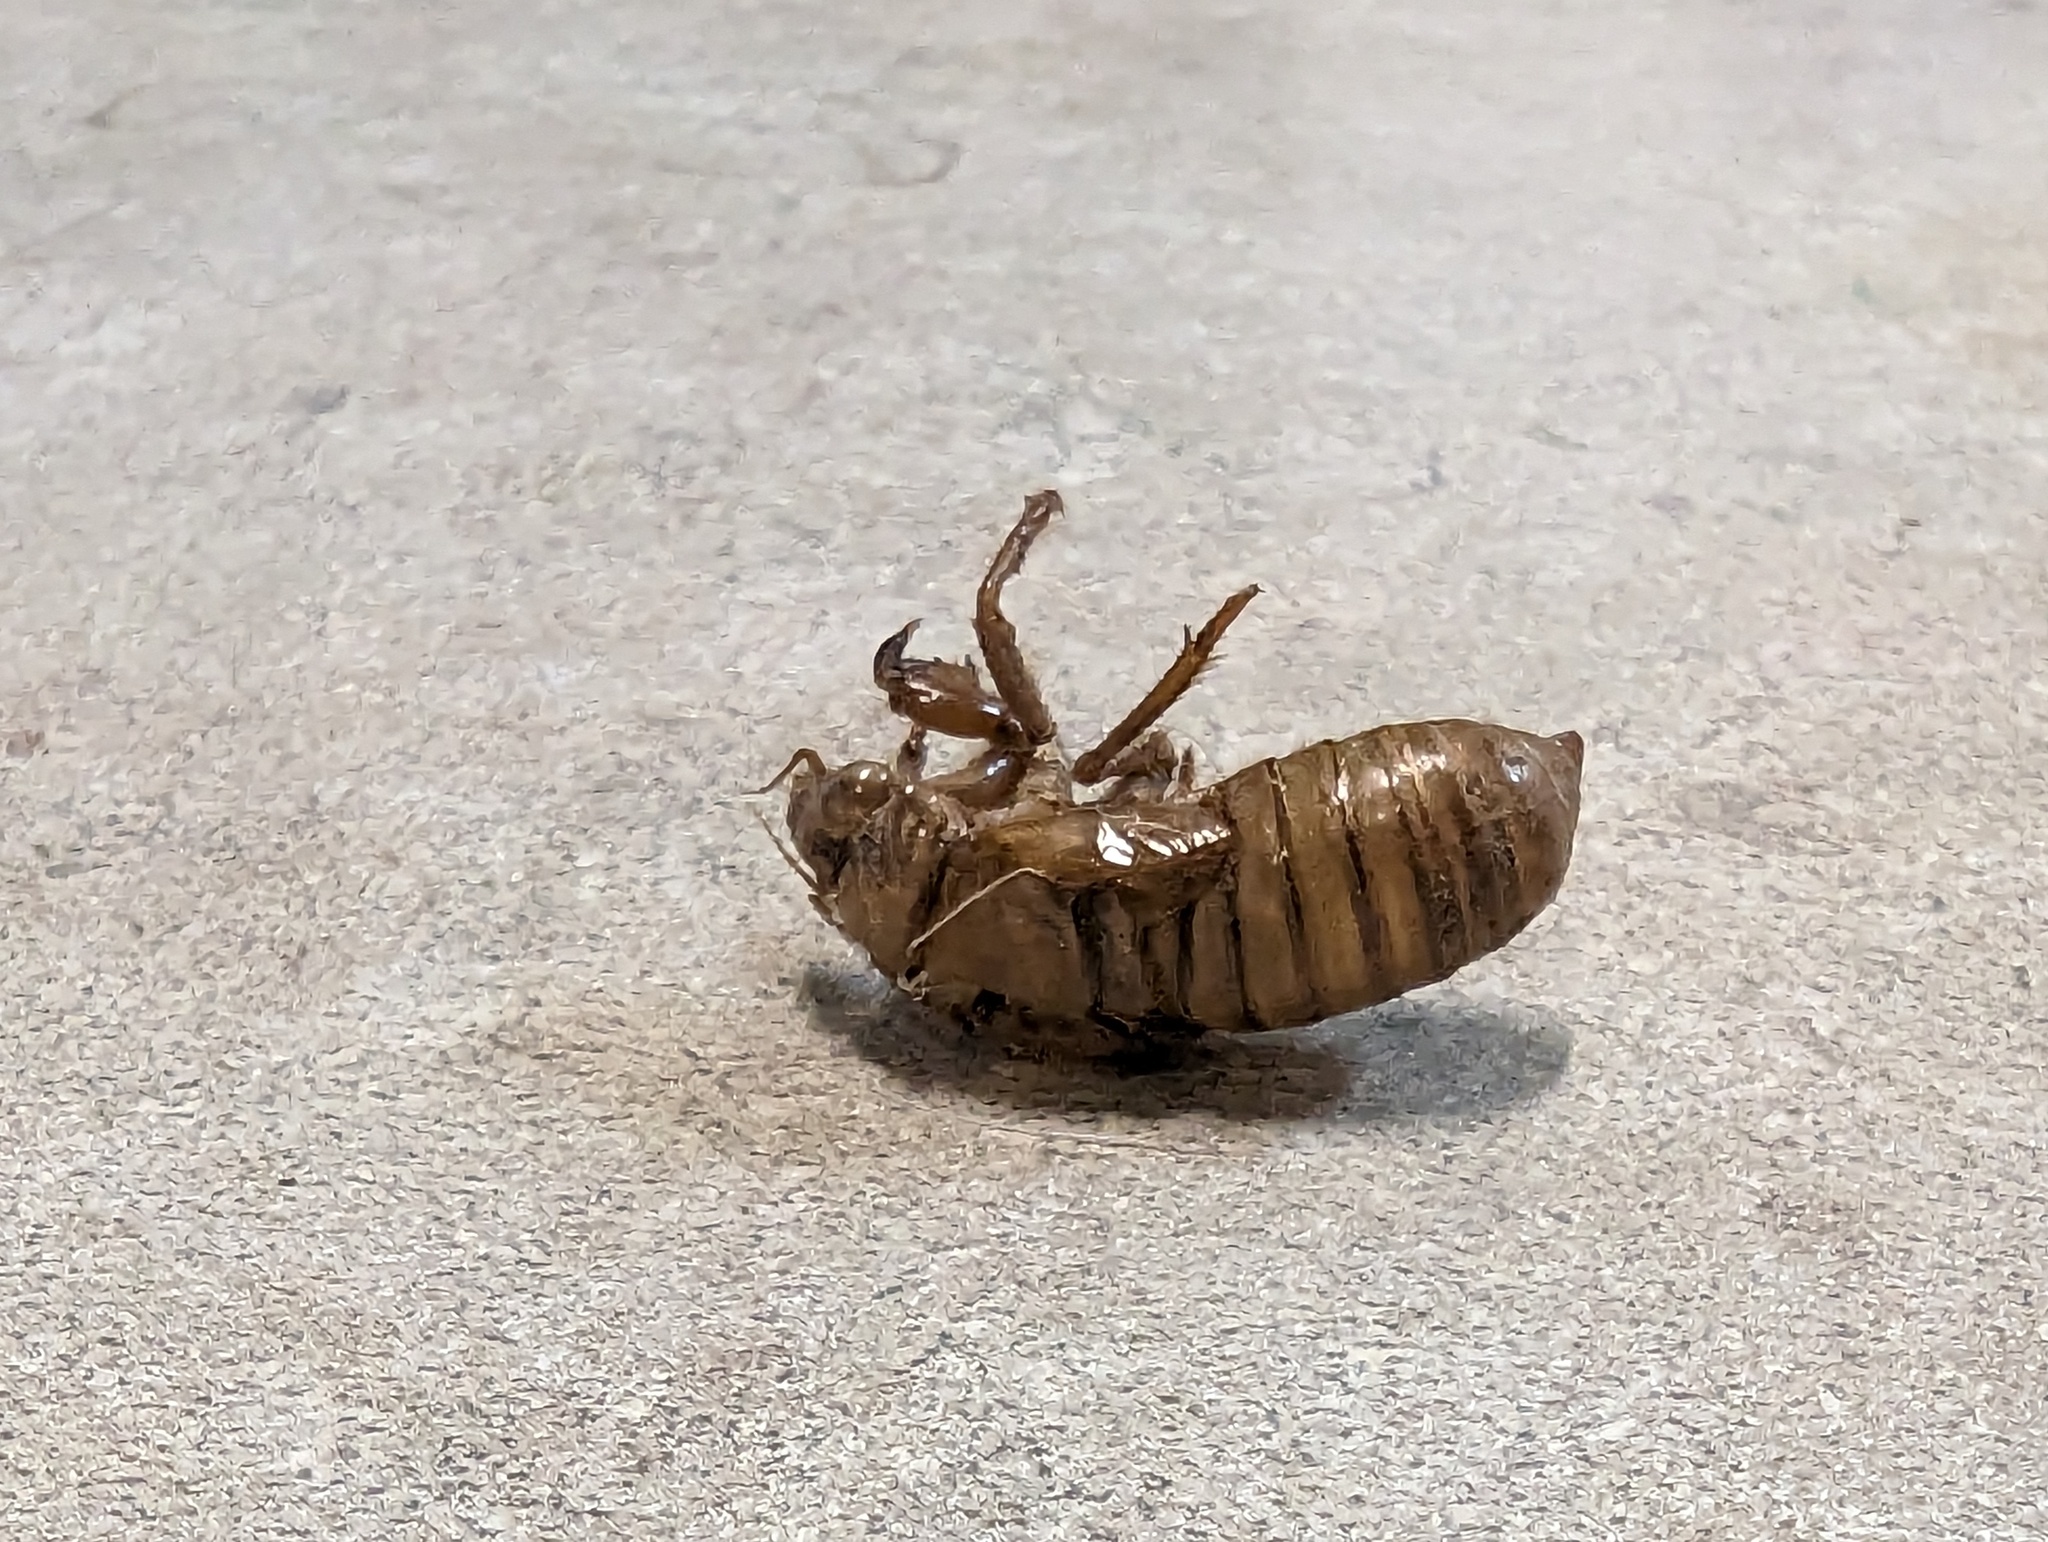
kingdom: Animalia
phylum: Arthropoda
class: Insecta
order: Hemiptera
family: Cicadidae
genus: Magicicada
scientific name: Magicicada
